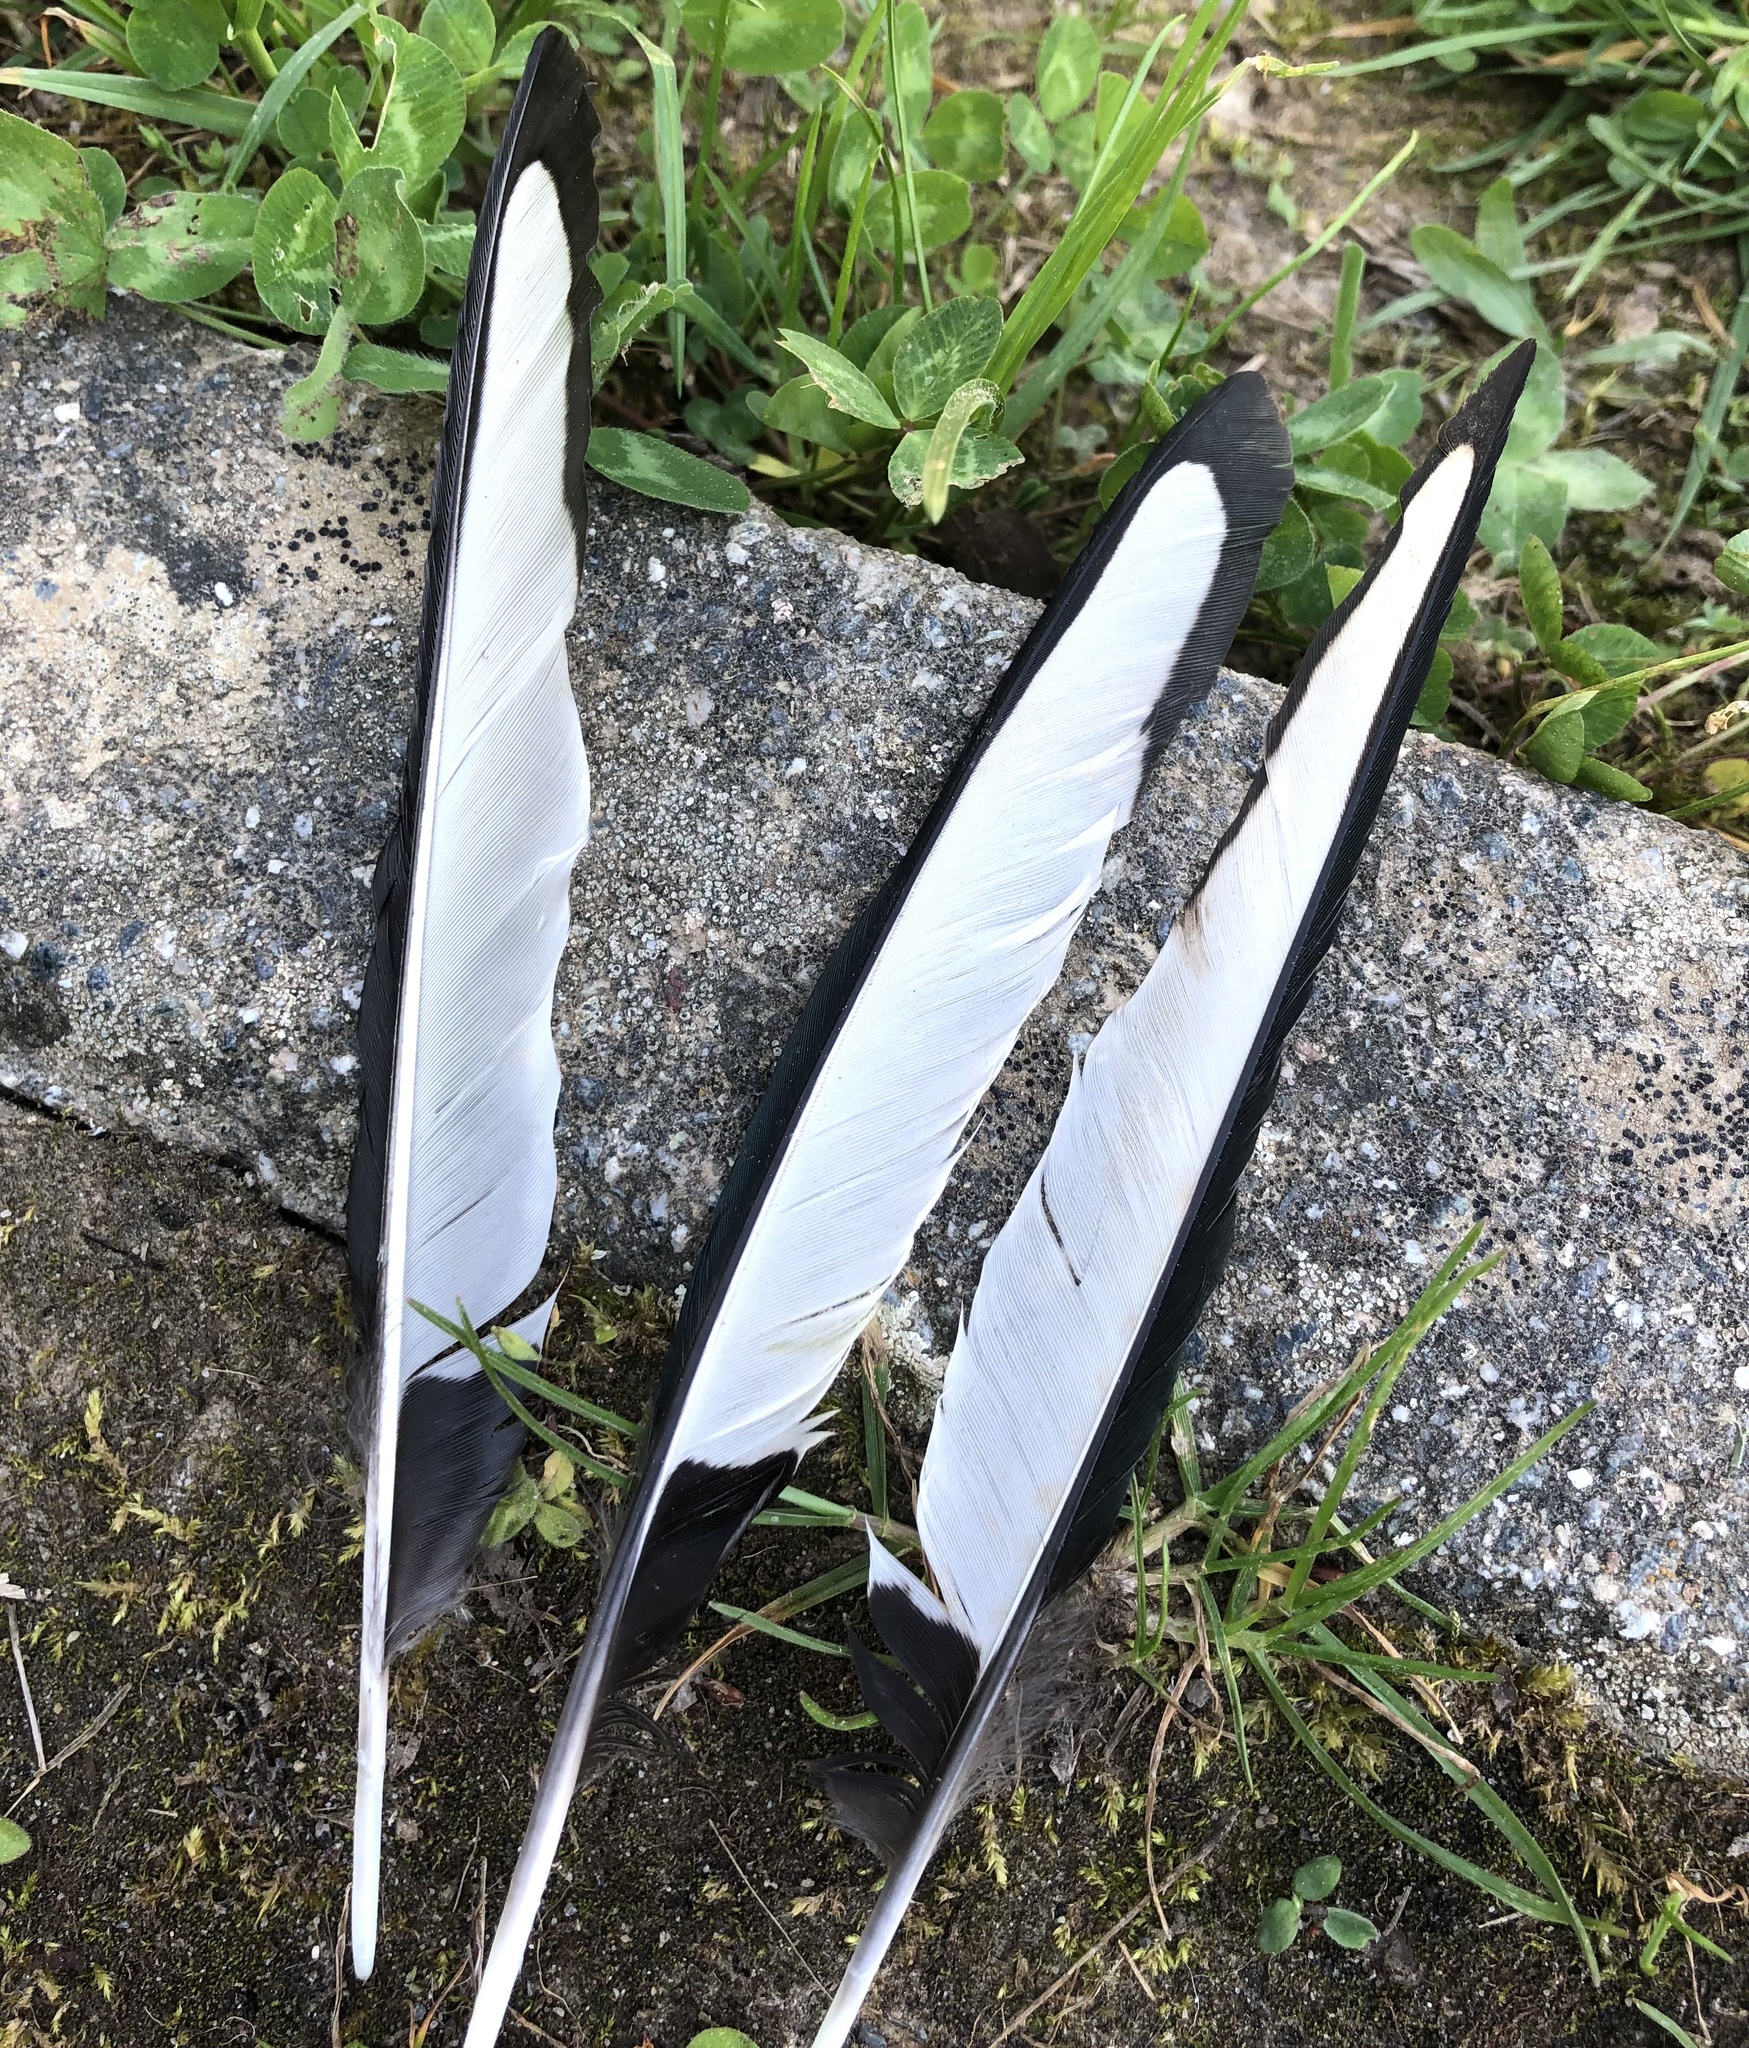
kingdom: Animalia
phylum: Chordata
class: Aves
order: Passeriformes
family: Corvidae
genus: Pica
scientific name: Pica pica
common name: Eurasian magpie
